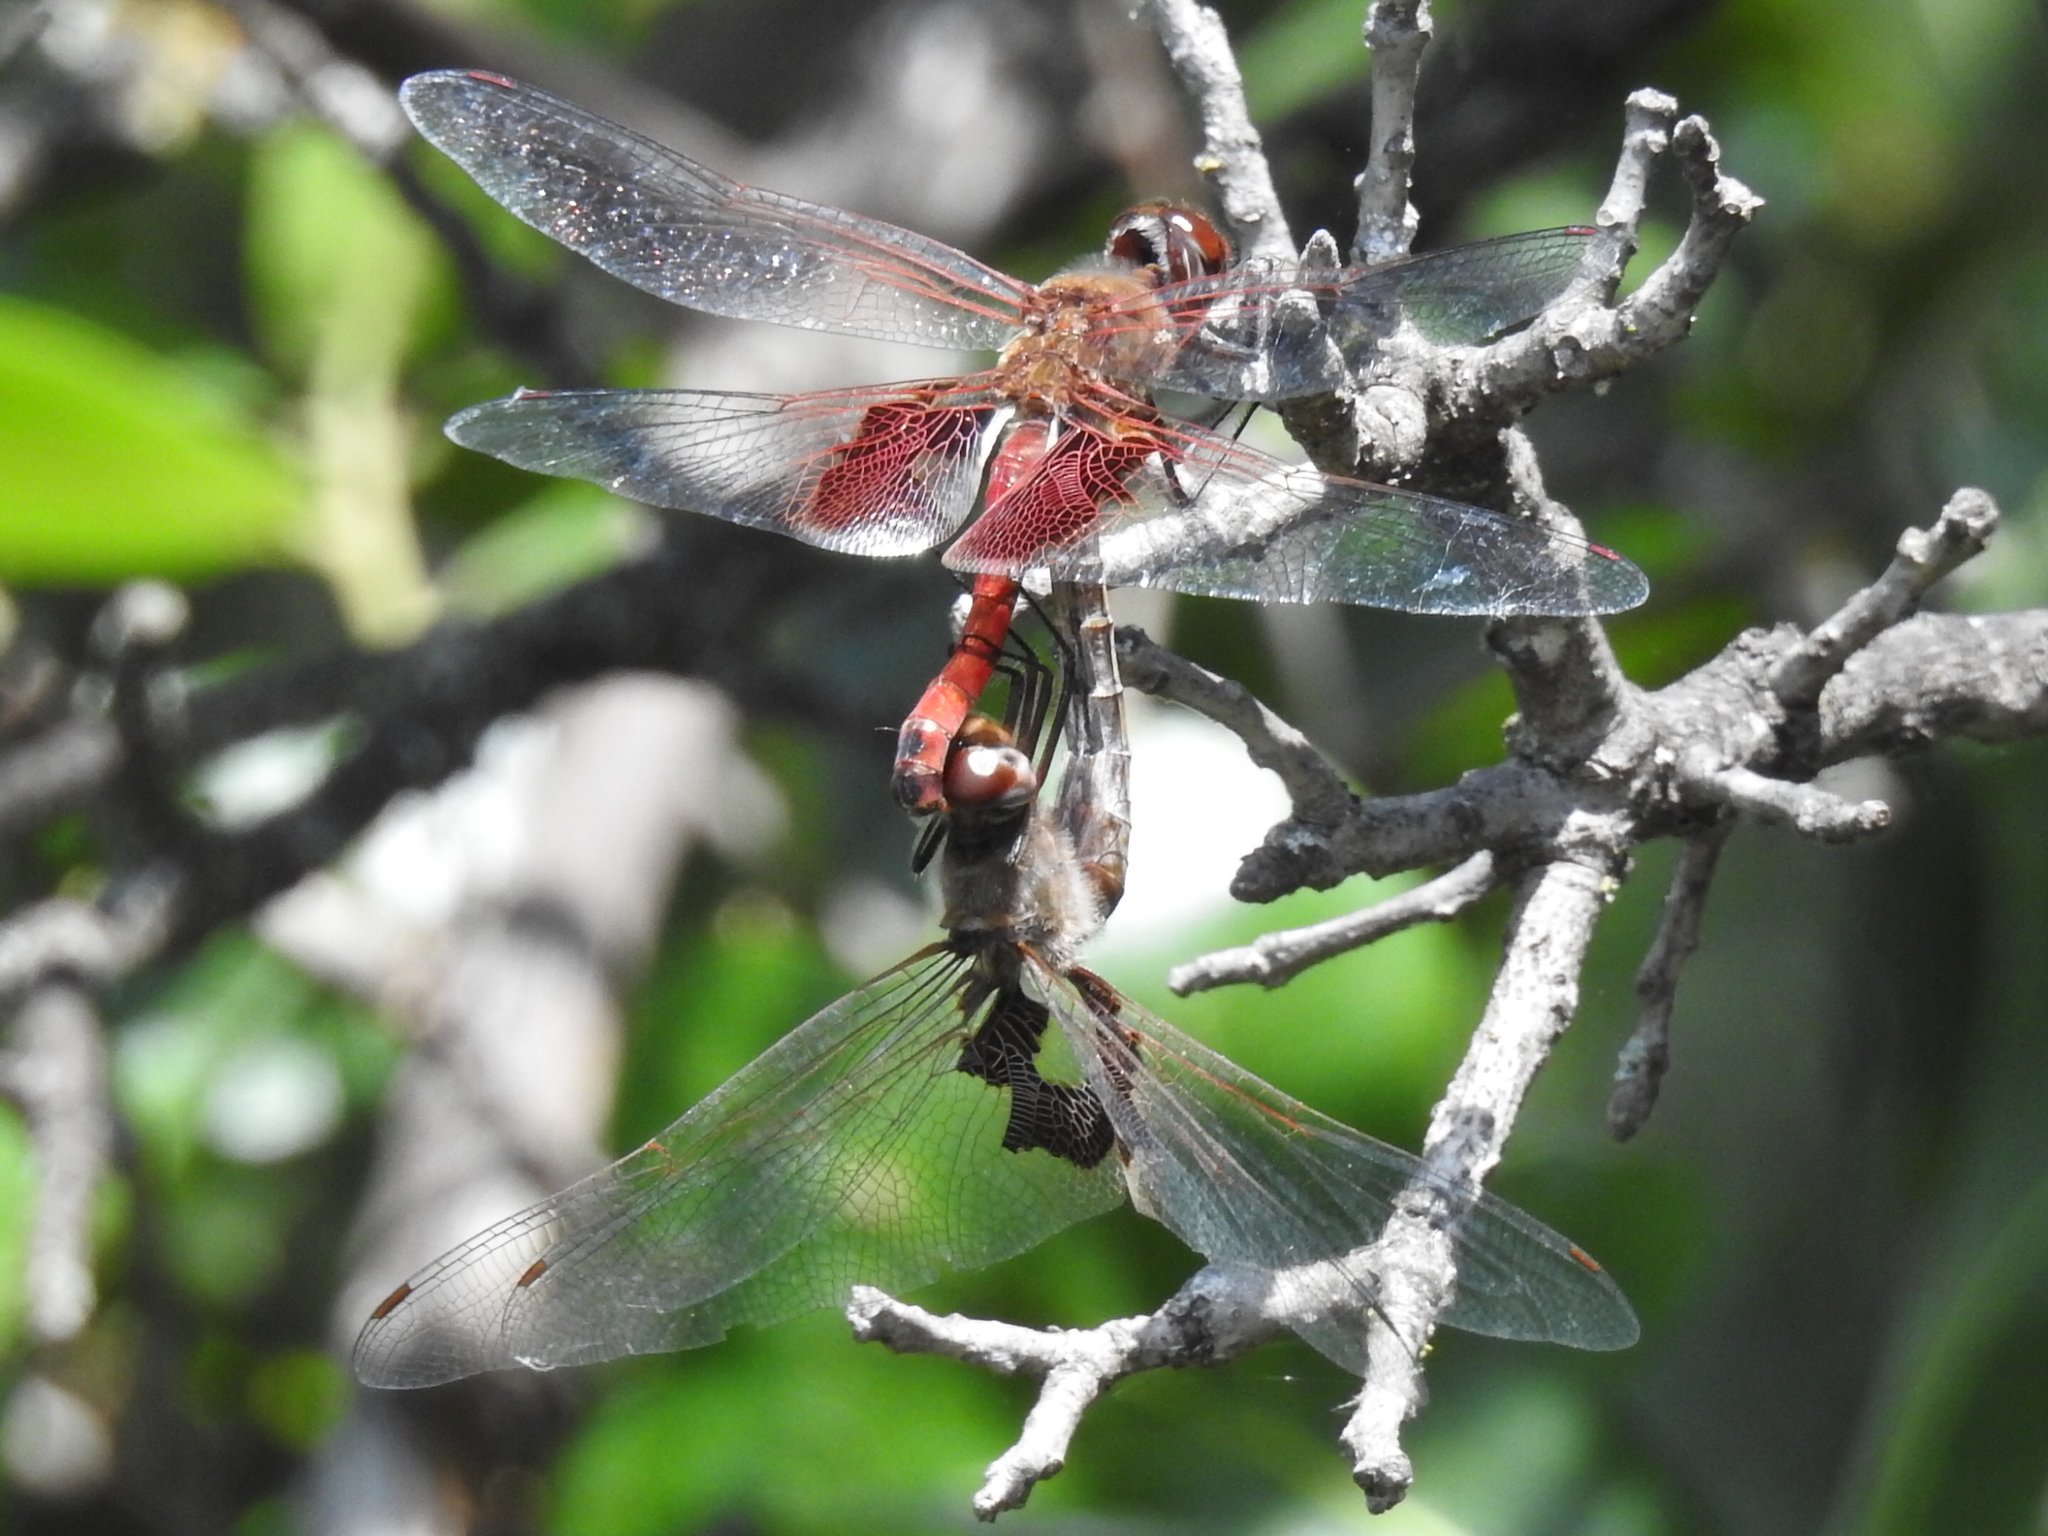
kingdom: Animalia
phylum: Arthropoda
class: Insecta
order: Odonata
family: Libellulidae
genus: Tramea
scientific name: Tramea onusta
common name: Red saddlebags
